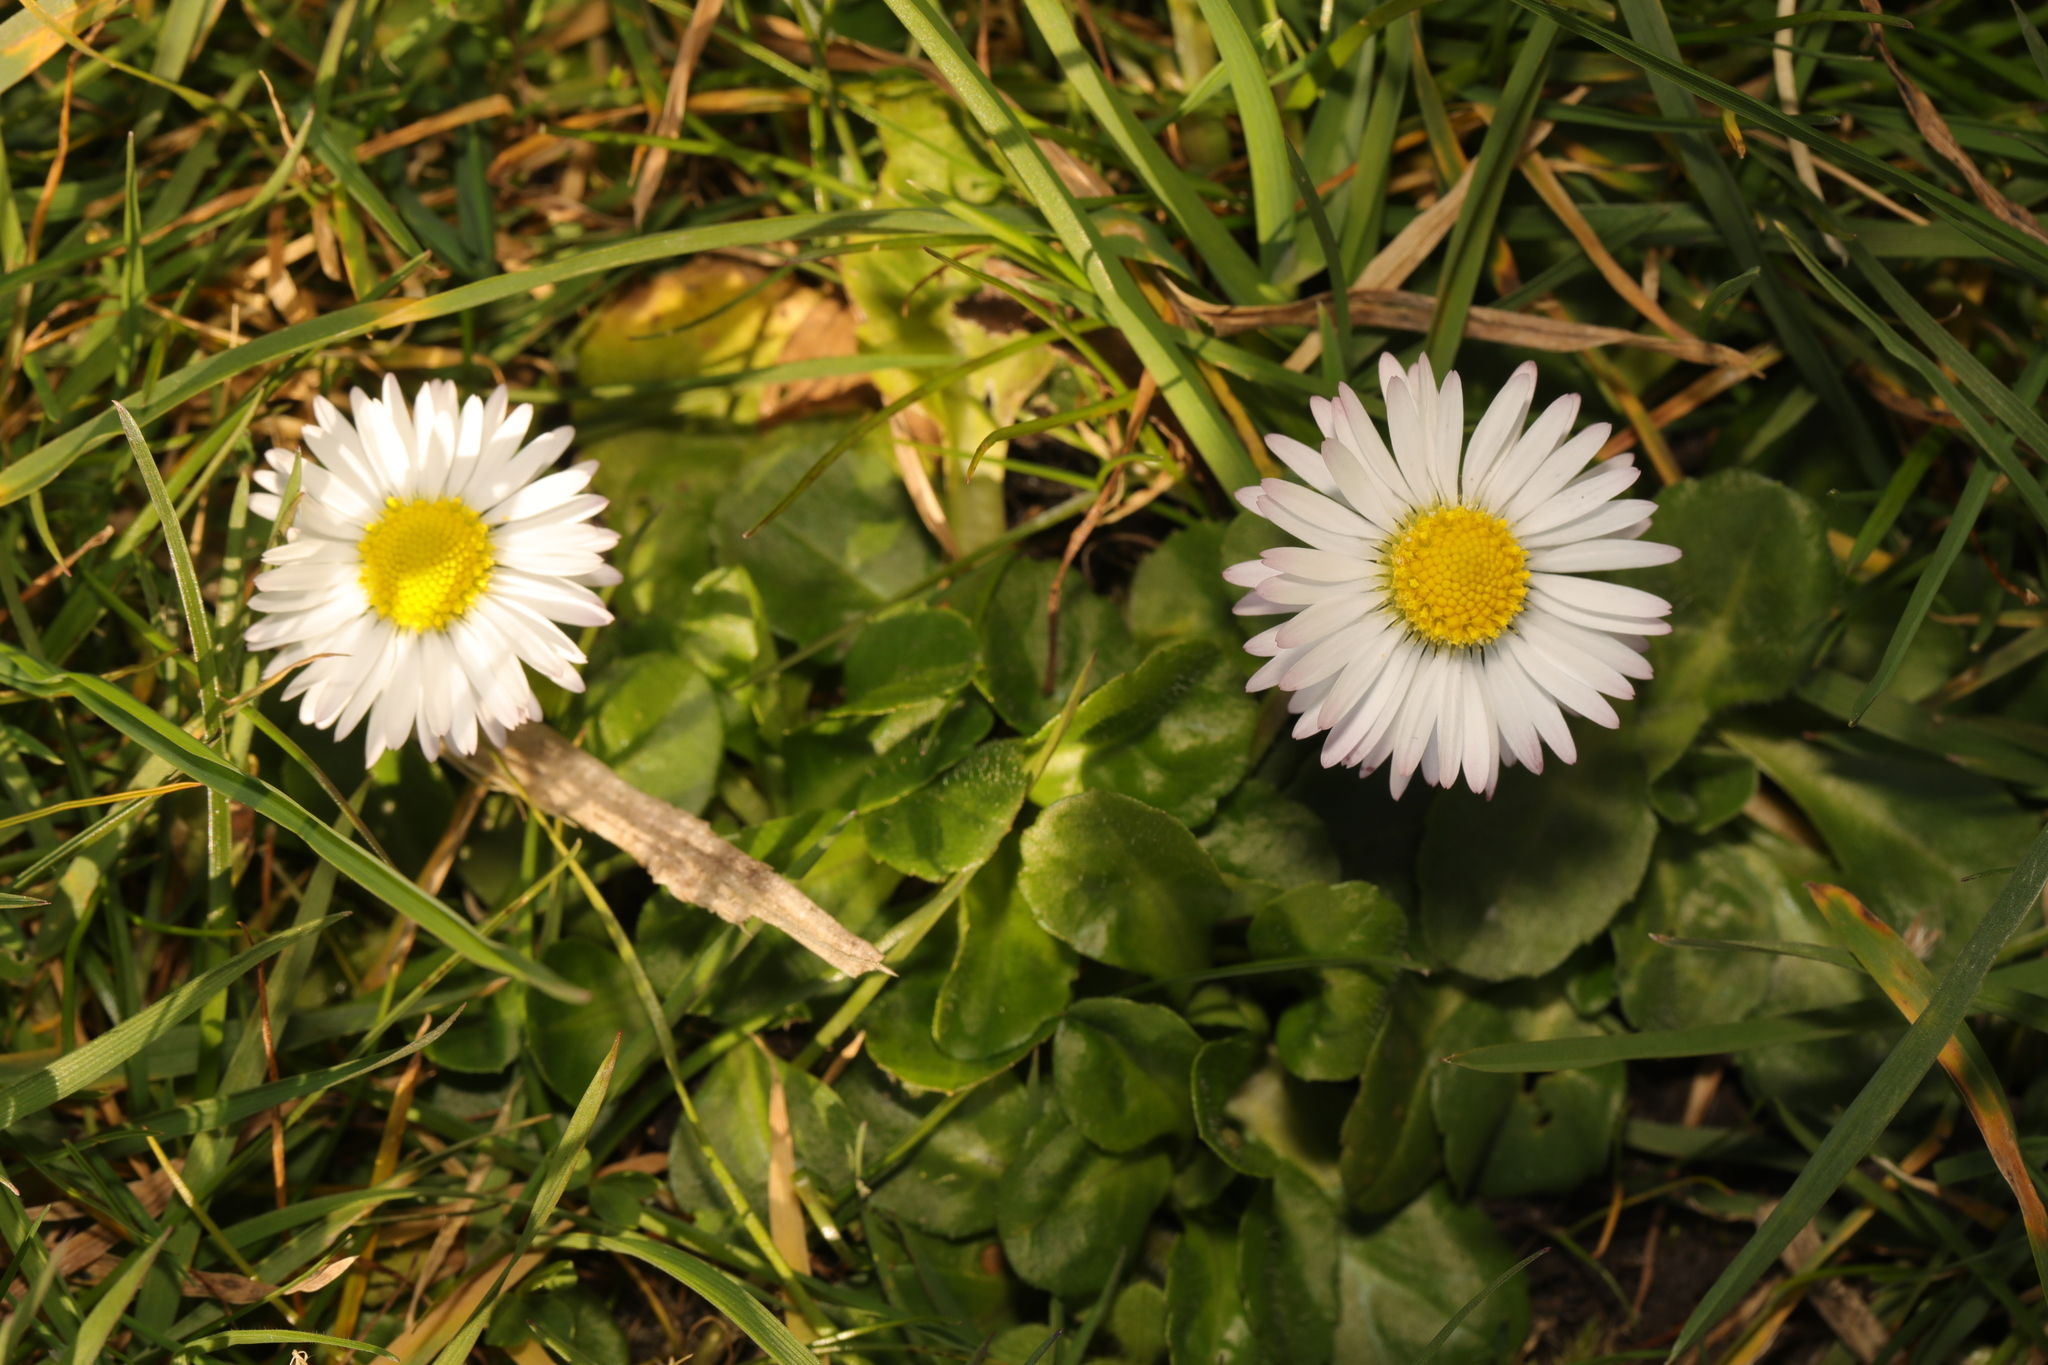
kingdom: Plantae
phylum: Tracheophyta
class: Magnoliopsida
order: Asterales
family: Asteraceae
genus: Bellis
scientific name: Bellis perennis
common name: Lawndaisy
